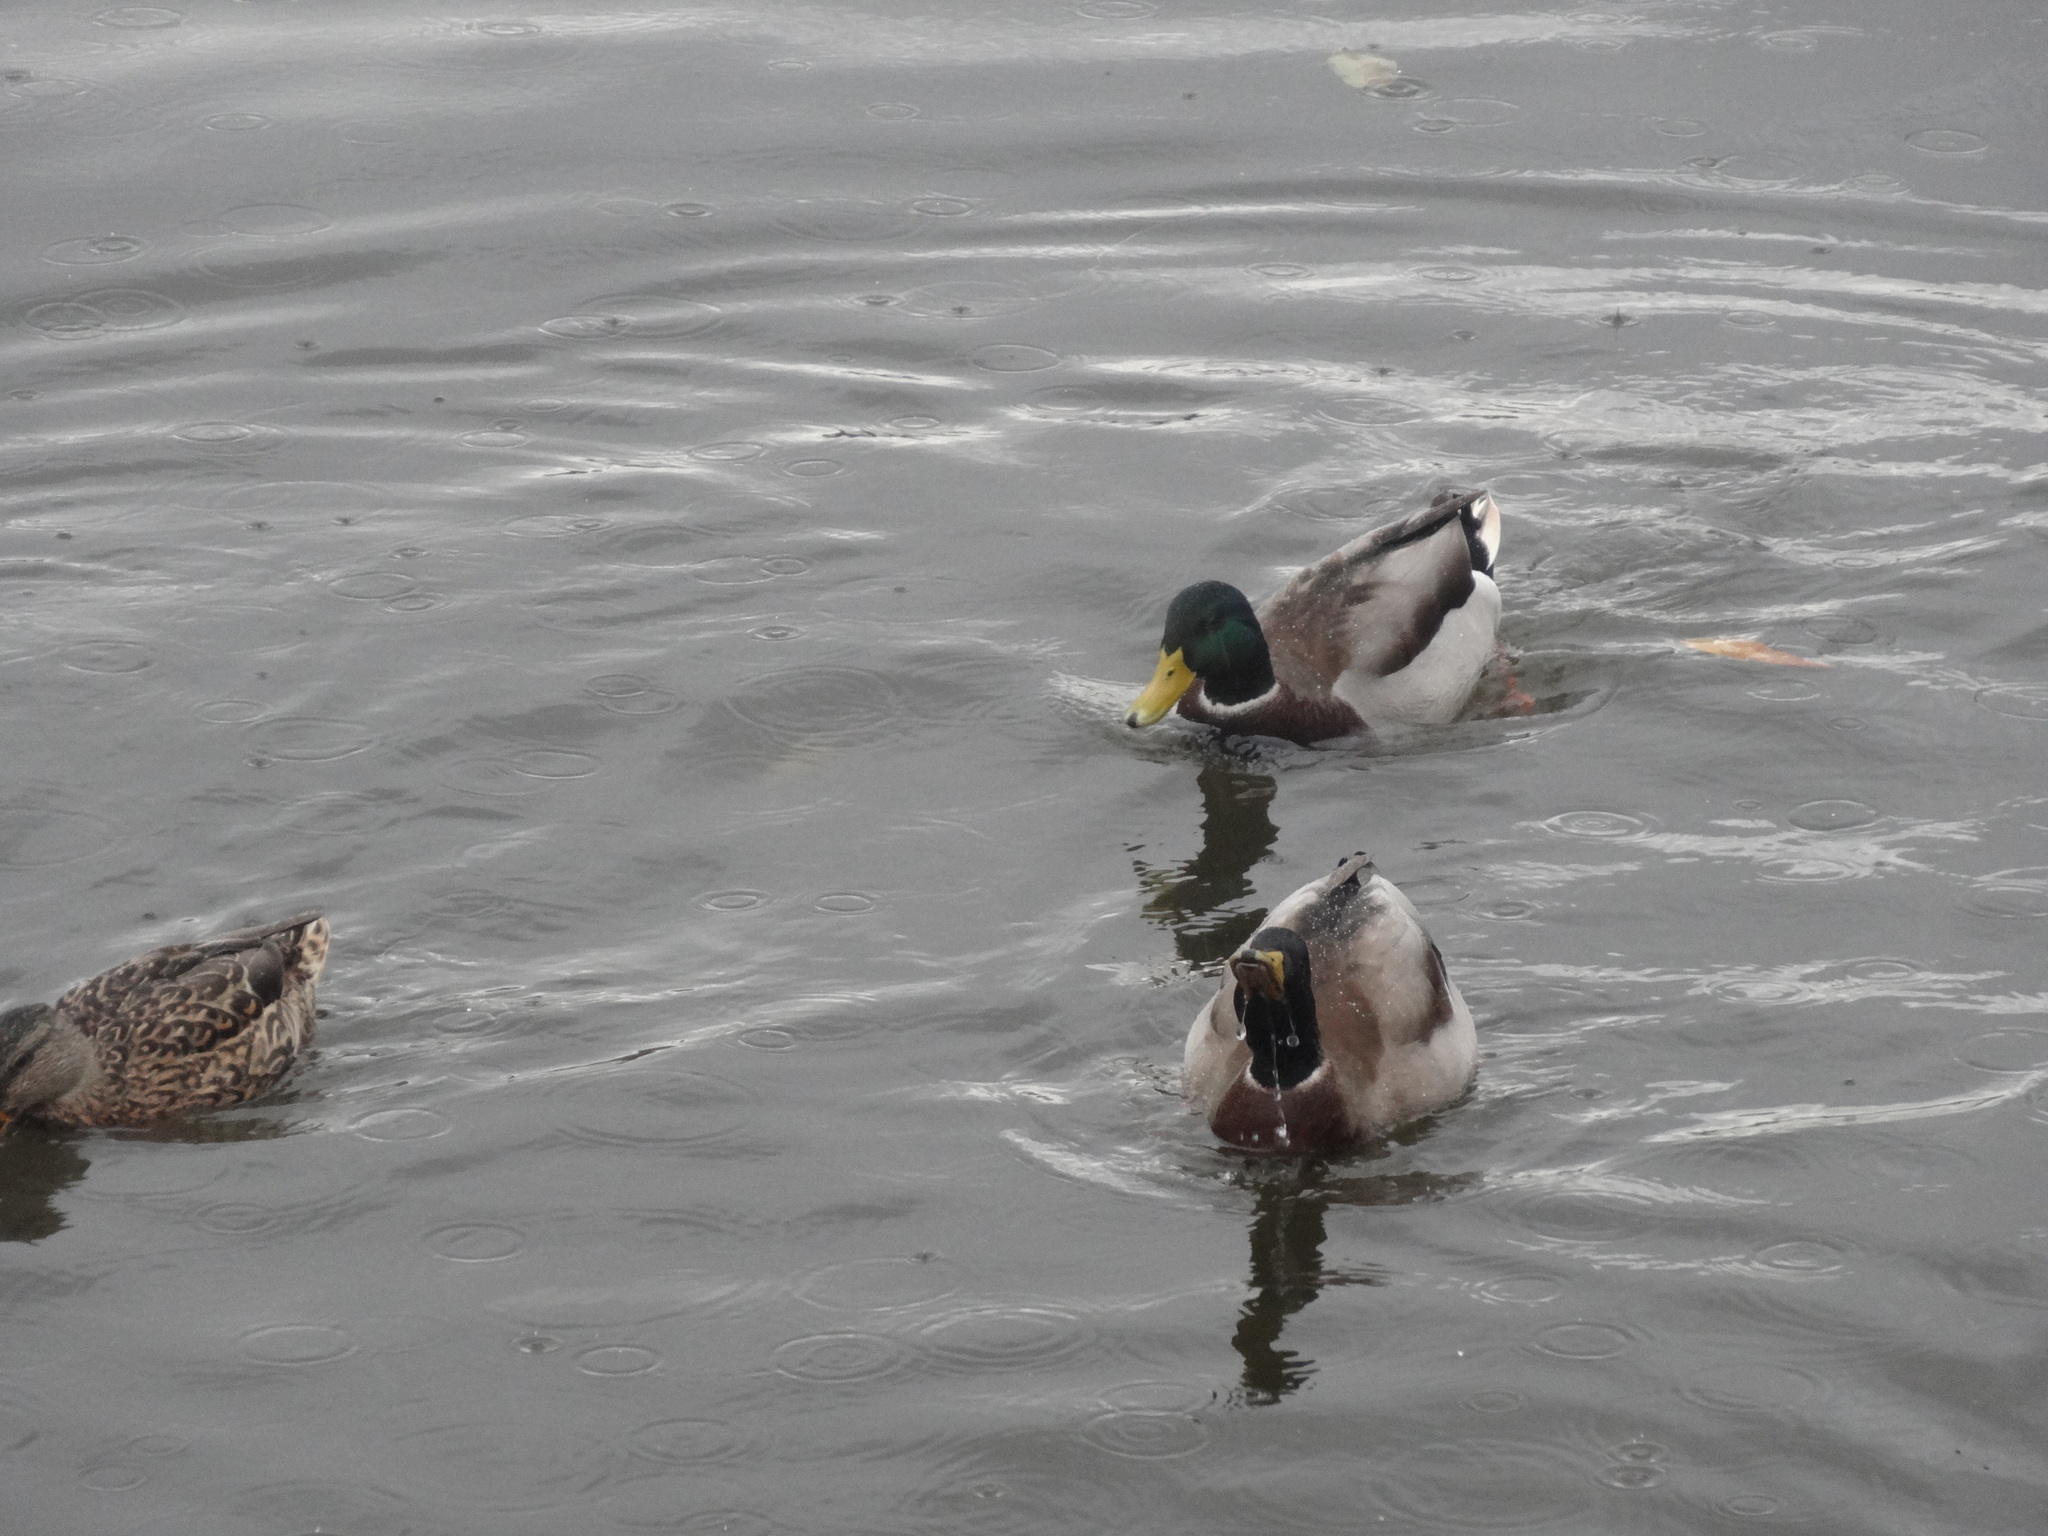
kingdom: Animalia
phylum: Chordata
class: Aves
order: Anseriformes
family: Anatidae
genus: Anas
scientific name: Anas platyrhynchos
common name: Mallard
